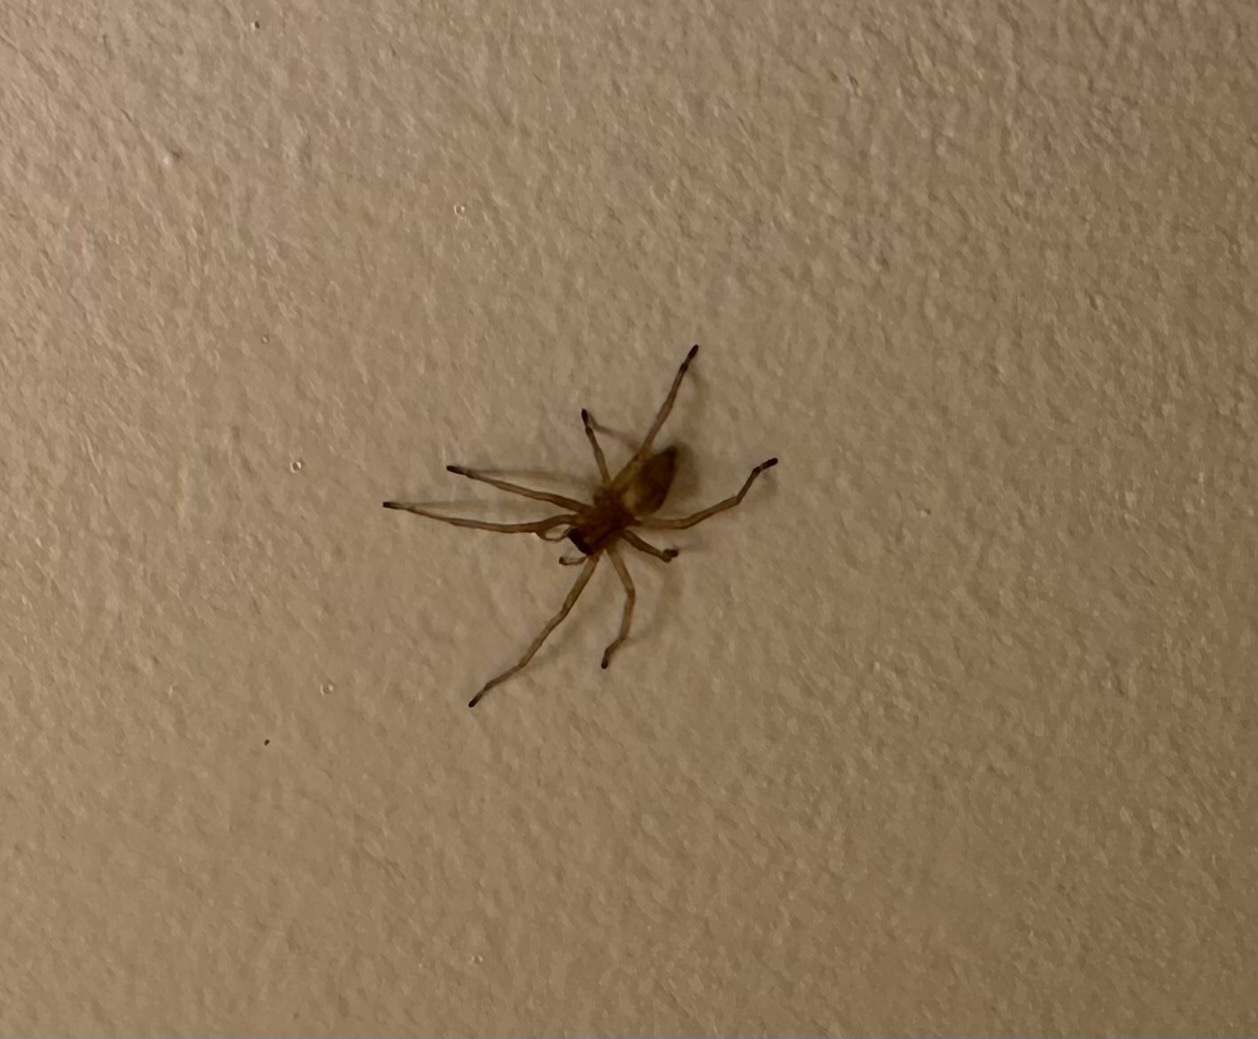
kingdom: Animalia
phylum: Arthropoda
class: Arachnida
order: Araneae
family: Cheiracanthiidae
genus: Cheiracanthium
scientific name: Cheiracanthium mildei
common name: Northern yellow sac spider
